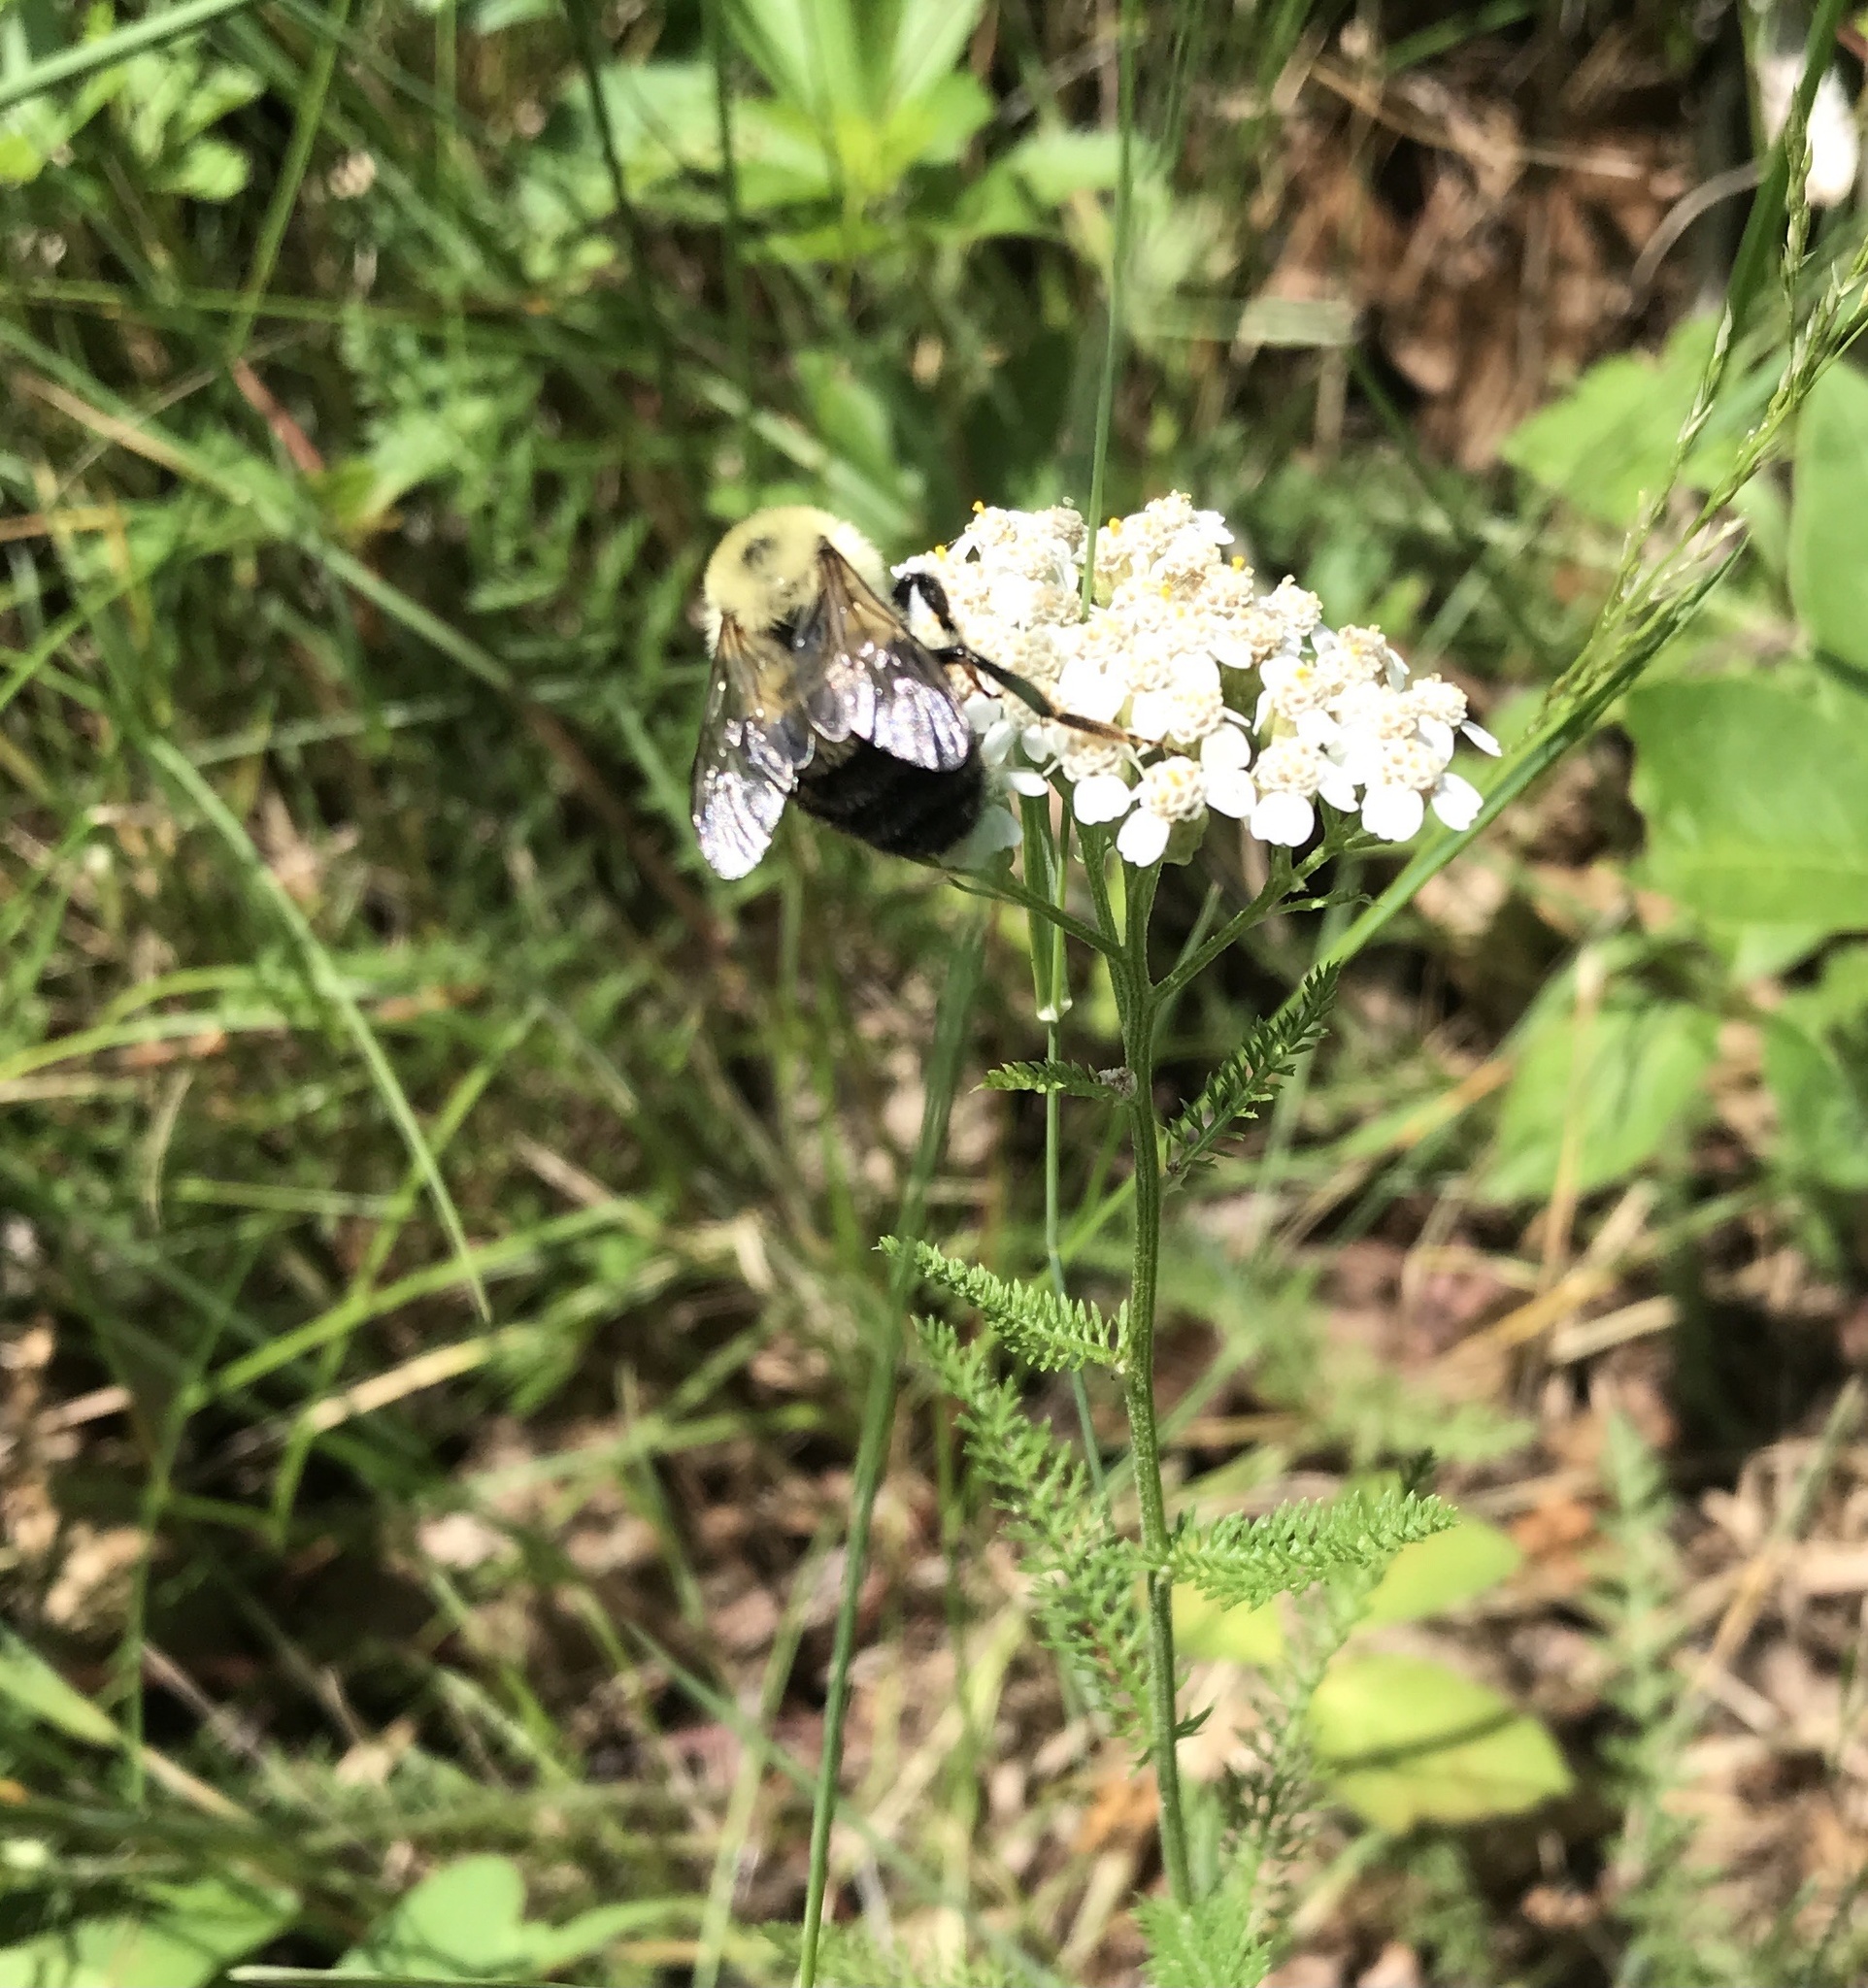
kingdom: Animalia
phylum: Arthropoda
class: Insecta
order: Hymenoptera
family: Apidae
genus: Bombus
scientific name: Bombus griseocollis
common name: Brown-belted bumble bee
